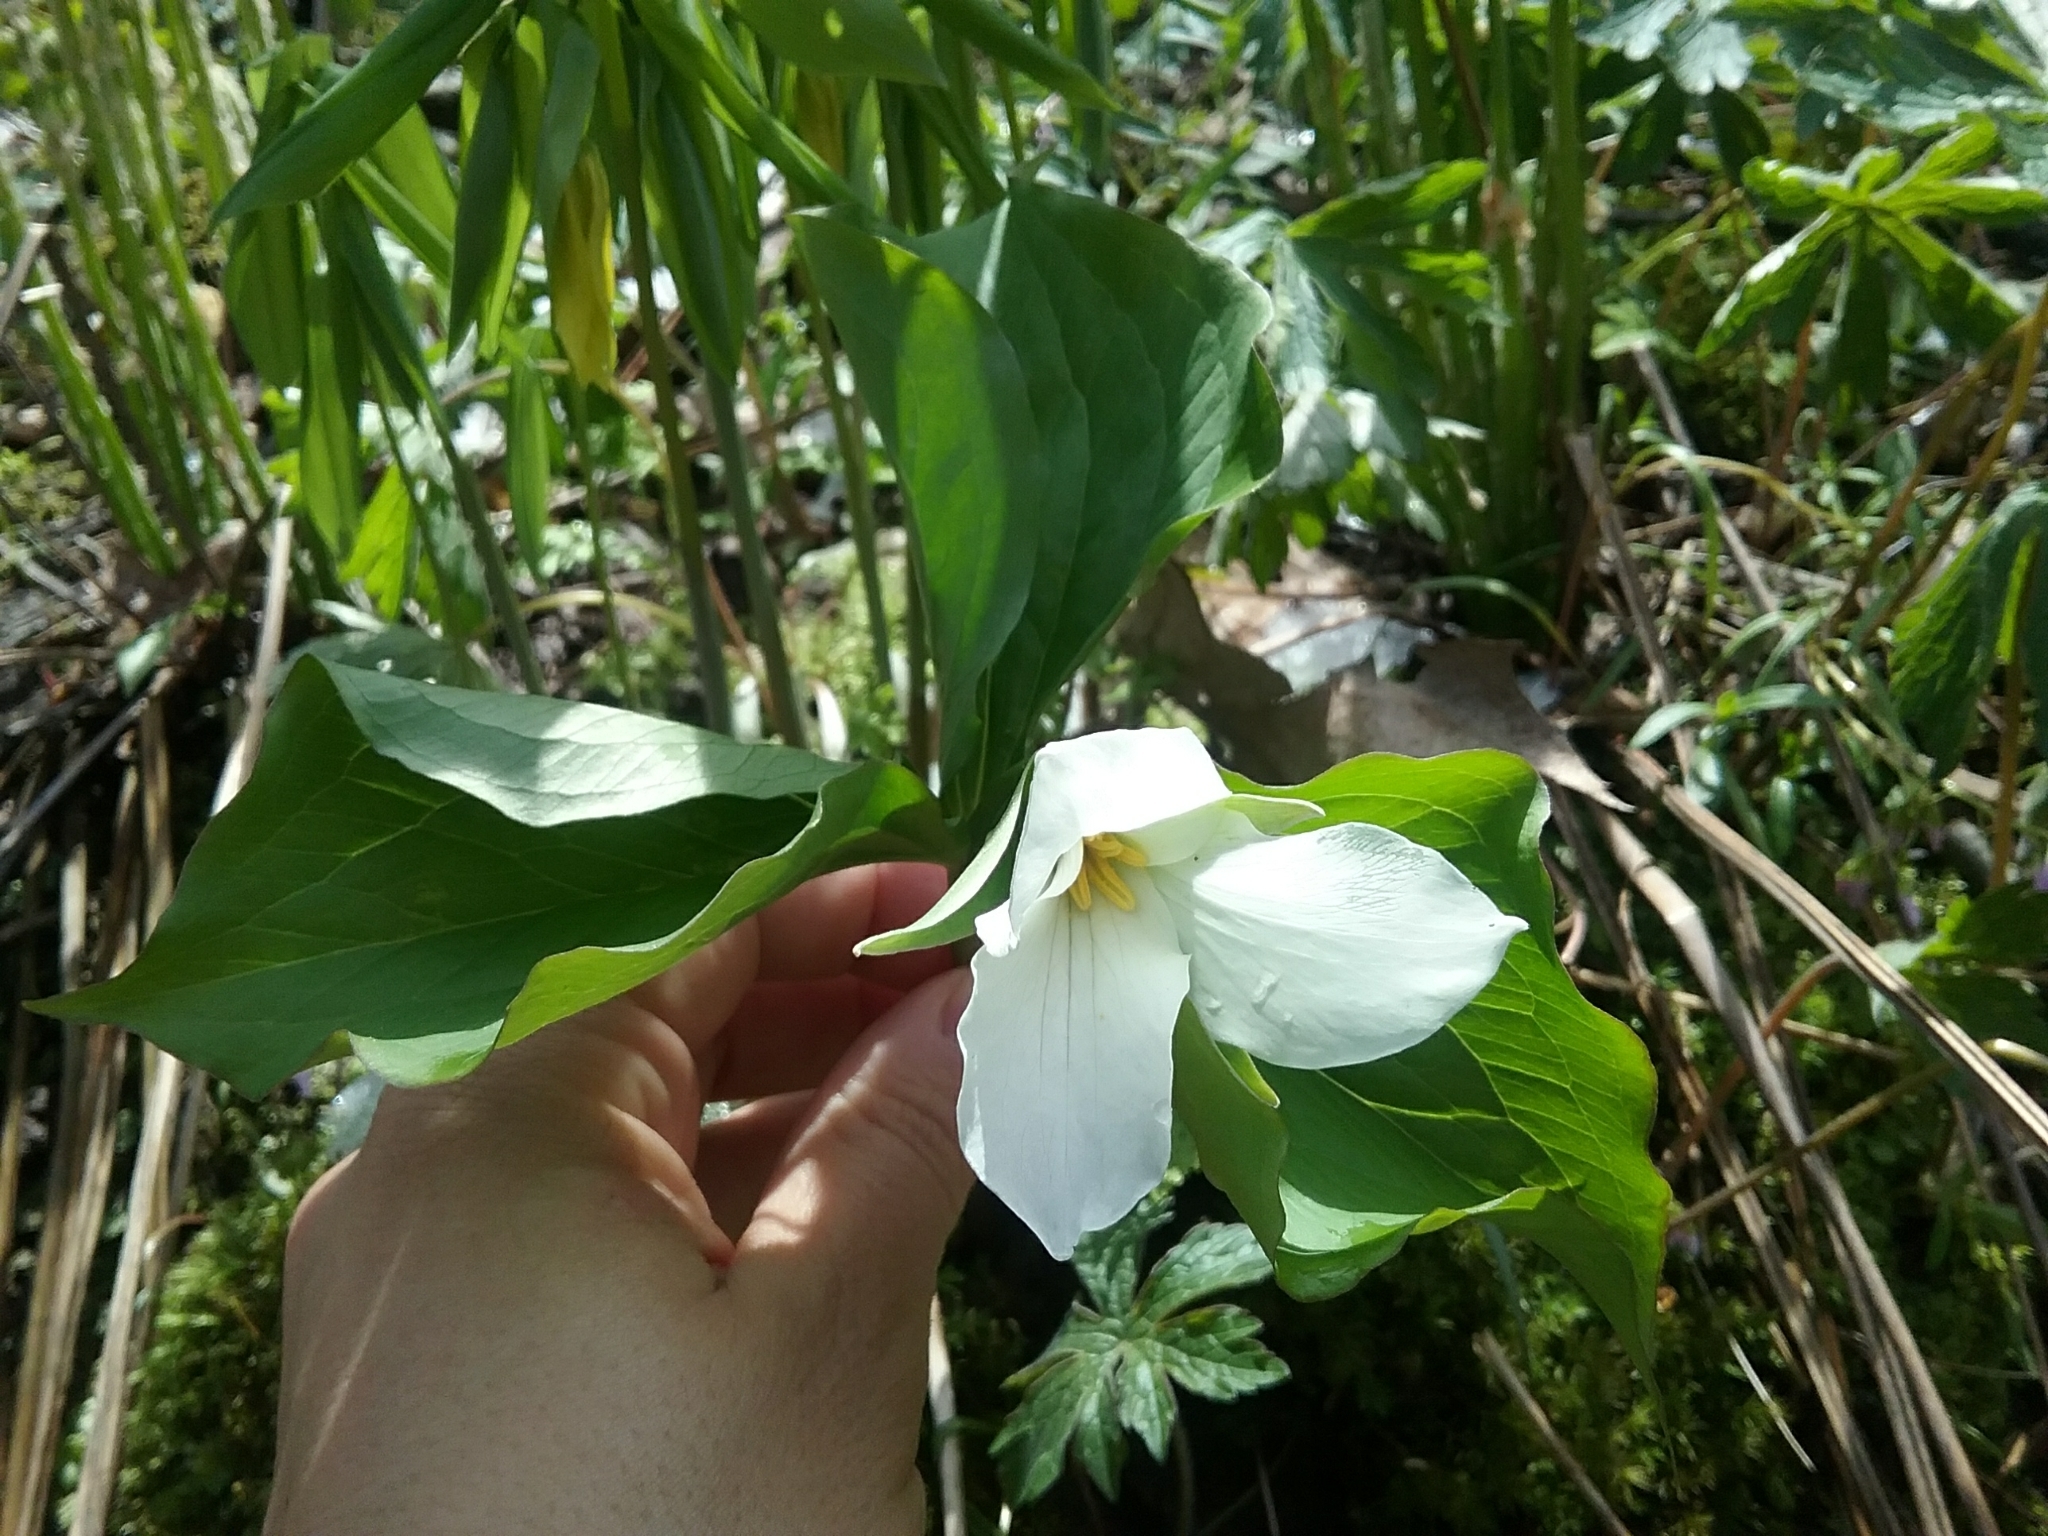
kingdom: Plantae
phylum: Tracheophyta
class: Liliopsida
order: Liliales
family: Melanthiaceae
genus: Trillium
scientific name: Trillium grandiflorum
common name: Great white trillium
